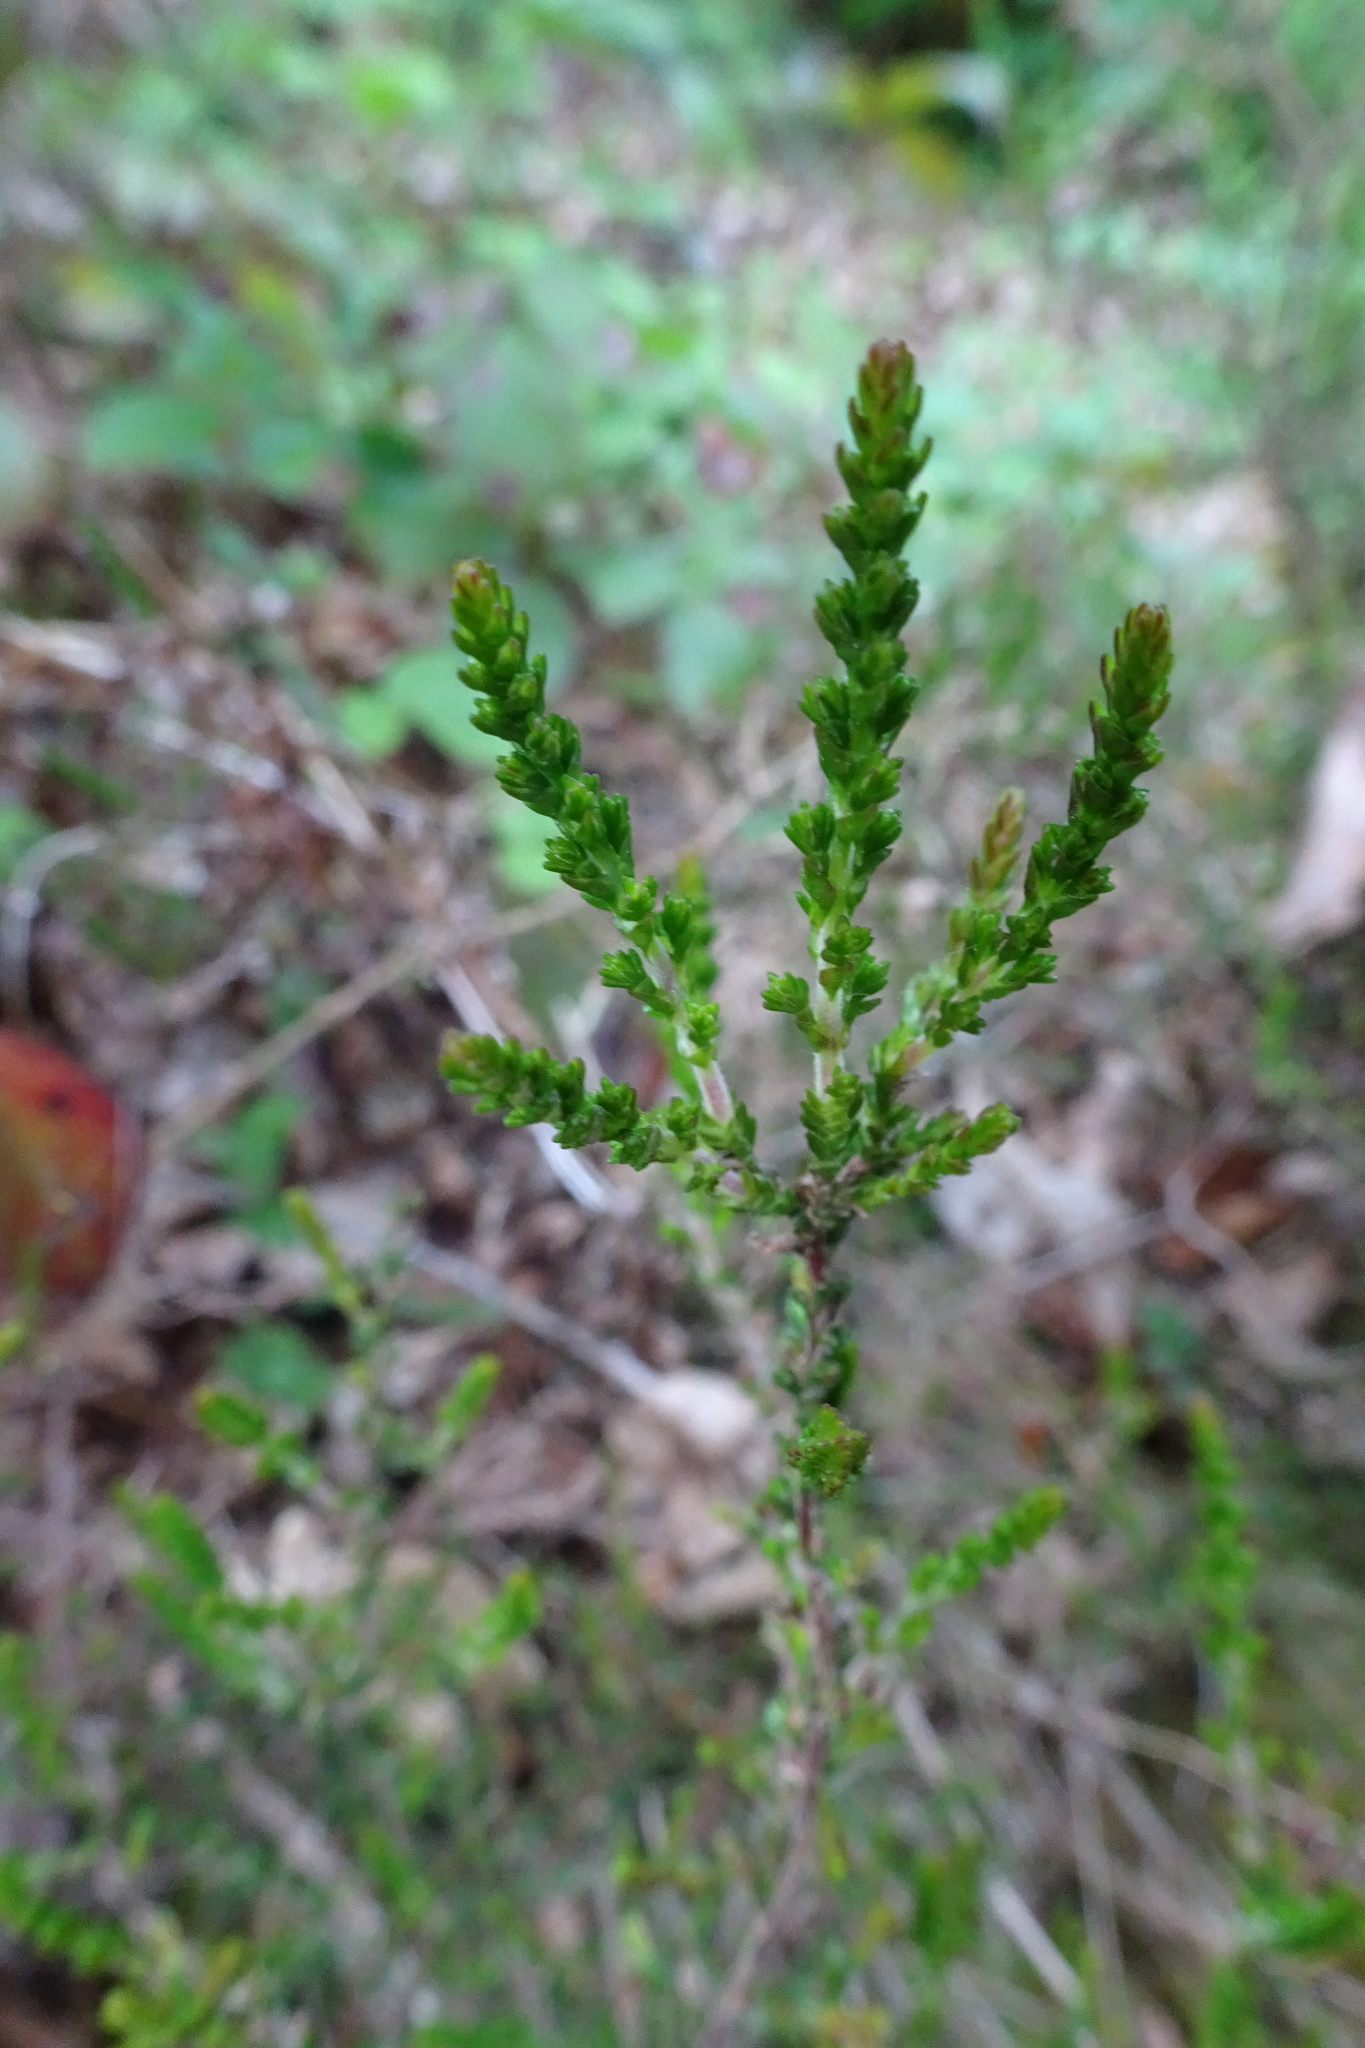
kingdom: Plantae
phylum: Tracheophyta
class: Magnoliopsida
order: Ericales
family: Ericaceae
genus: Calluna
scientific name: Calluna vulgaris
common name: Heather
